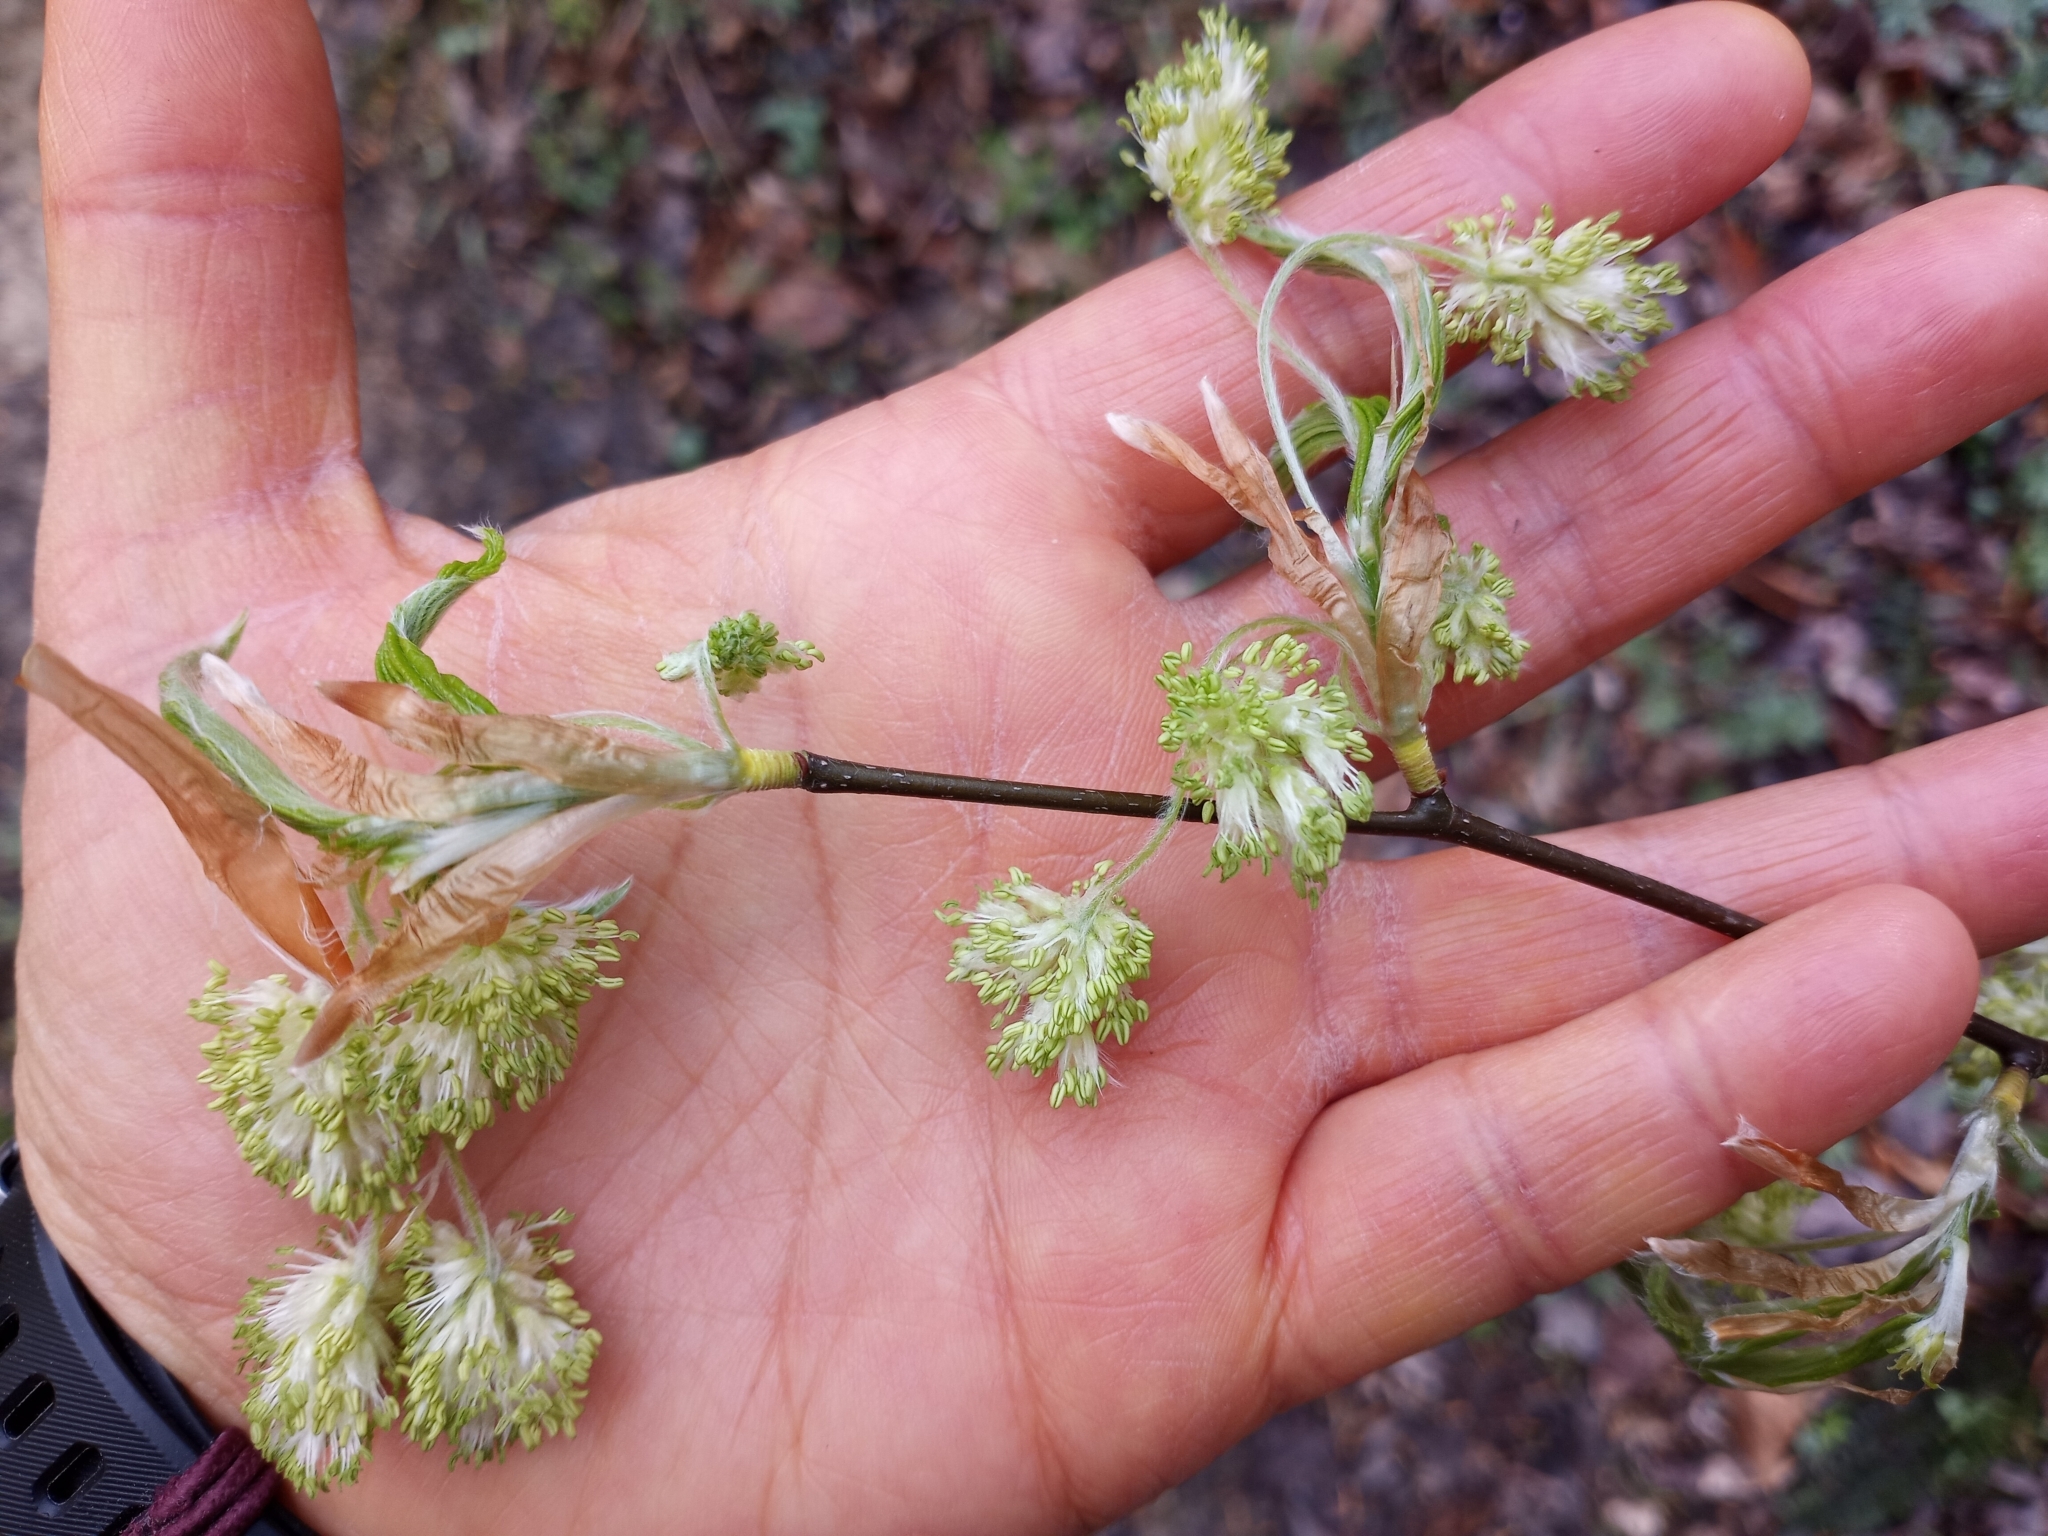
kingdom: Plantae
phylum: Tracheophyta
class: Magnoliopsida
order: Fagales
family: Fagaceae
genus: Fagus
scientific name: Fagus grandifolia
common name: American beech
